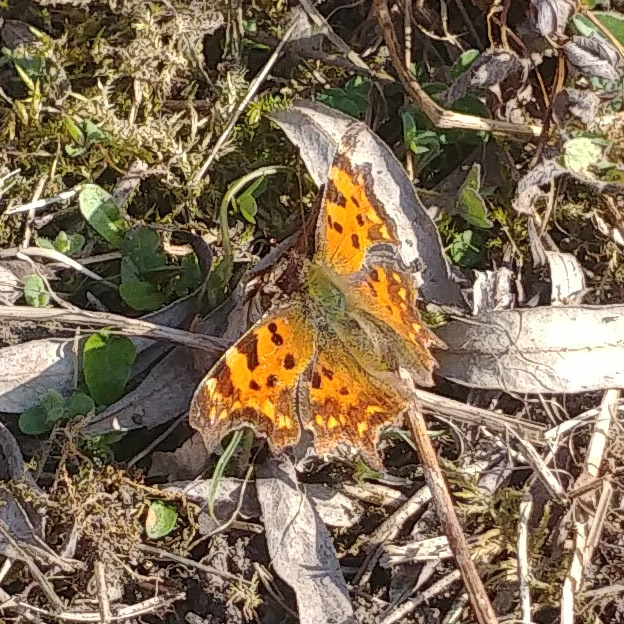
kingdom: Animalia
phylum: Arthropoda
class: Insecta
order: Lepidoptera
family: Nymphalidae
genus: Polygonia
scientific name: Polygonia c-album
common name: Comma
